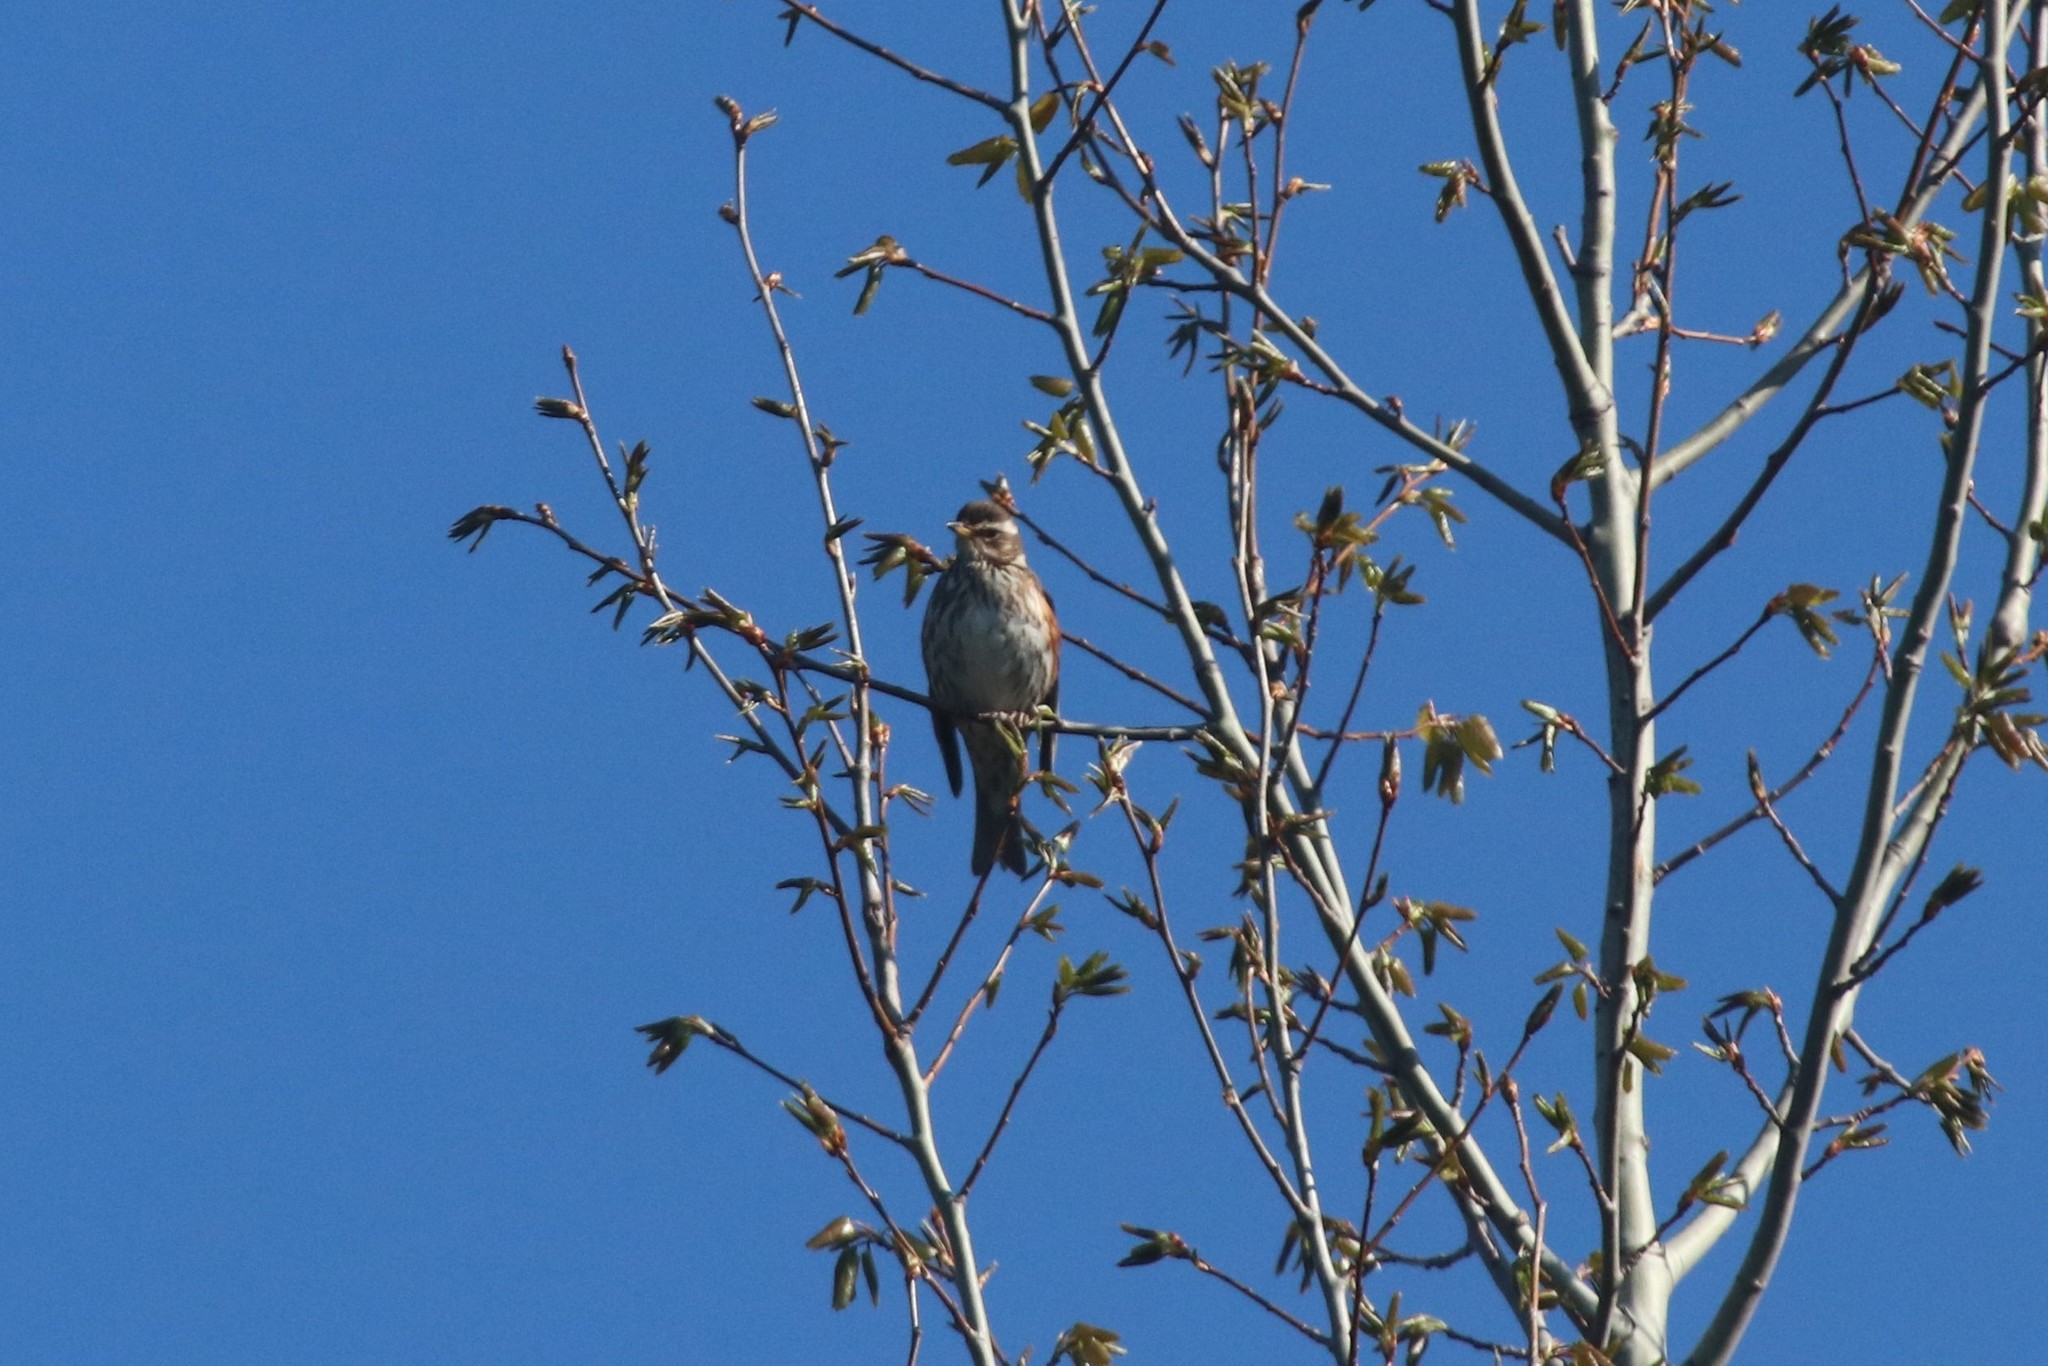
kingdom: Animalia
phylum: Chordata
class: Aves
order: Passeriformes
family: Turdidae
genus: Turdus
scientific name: Turdus iliacus
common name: Redwing
